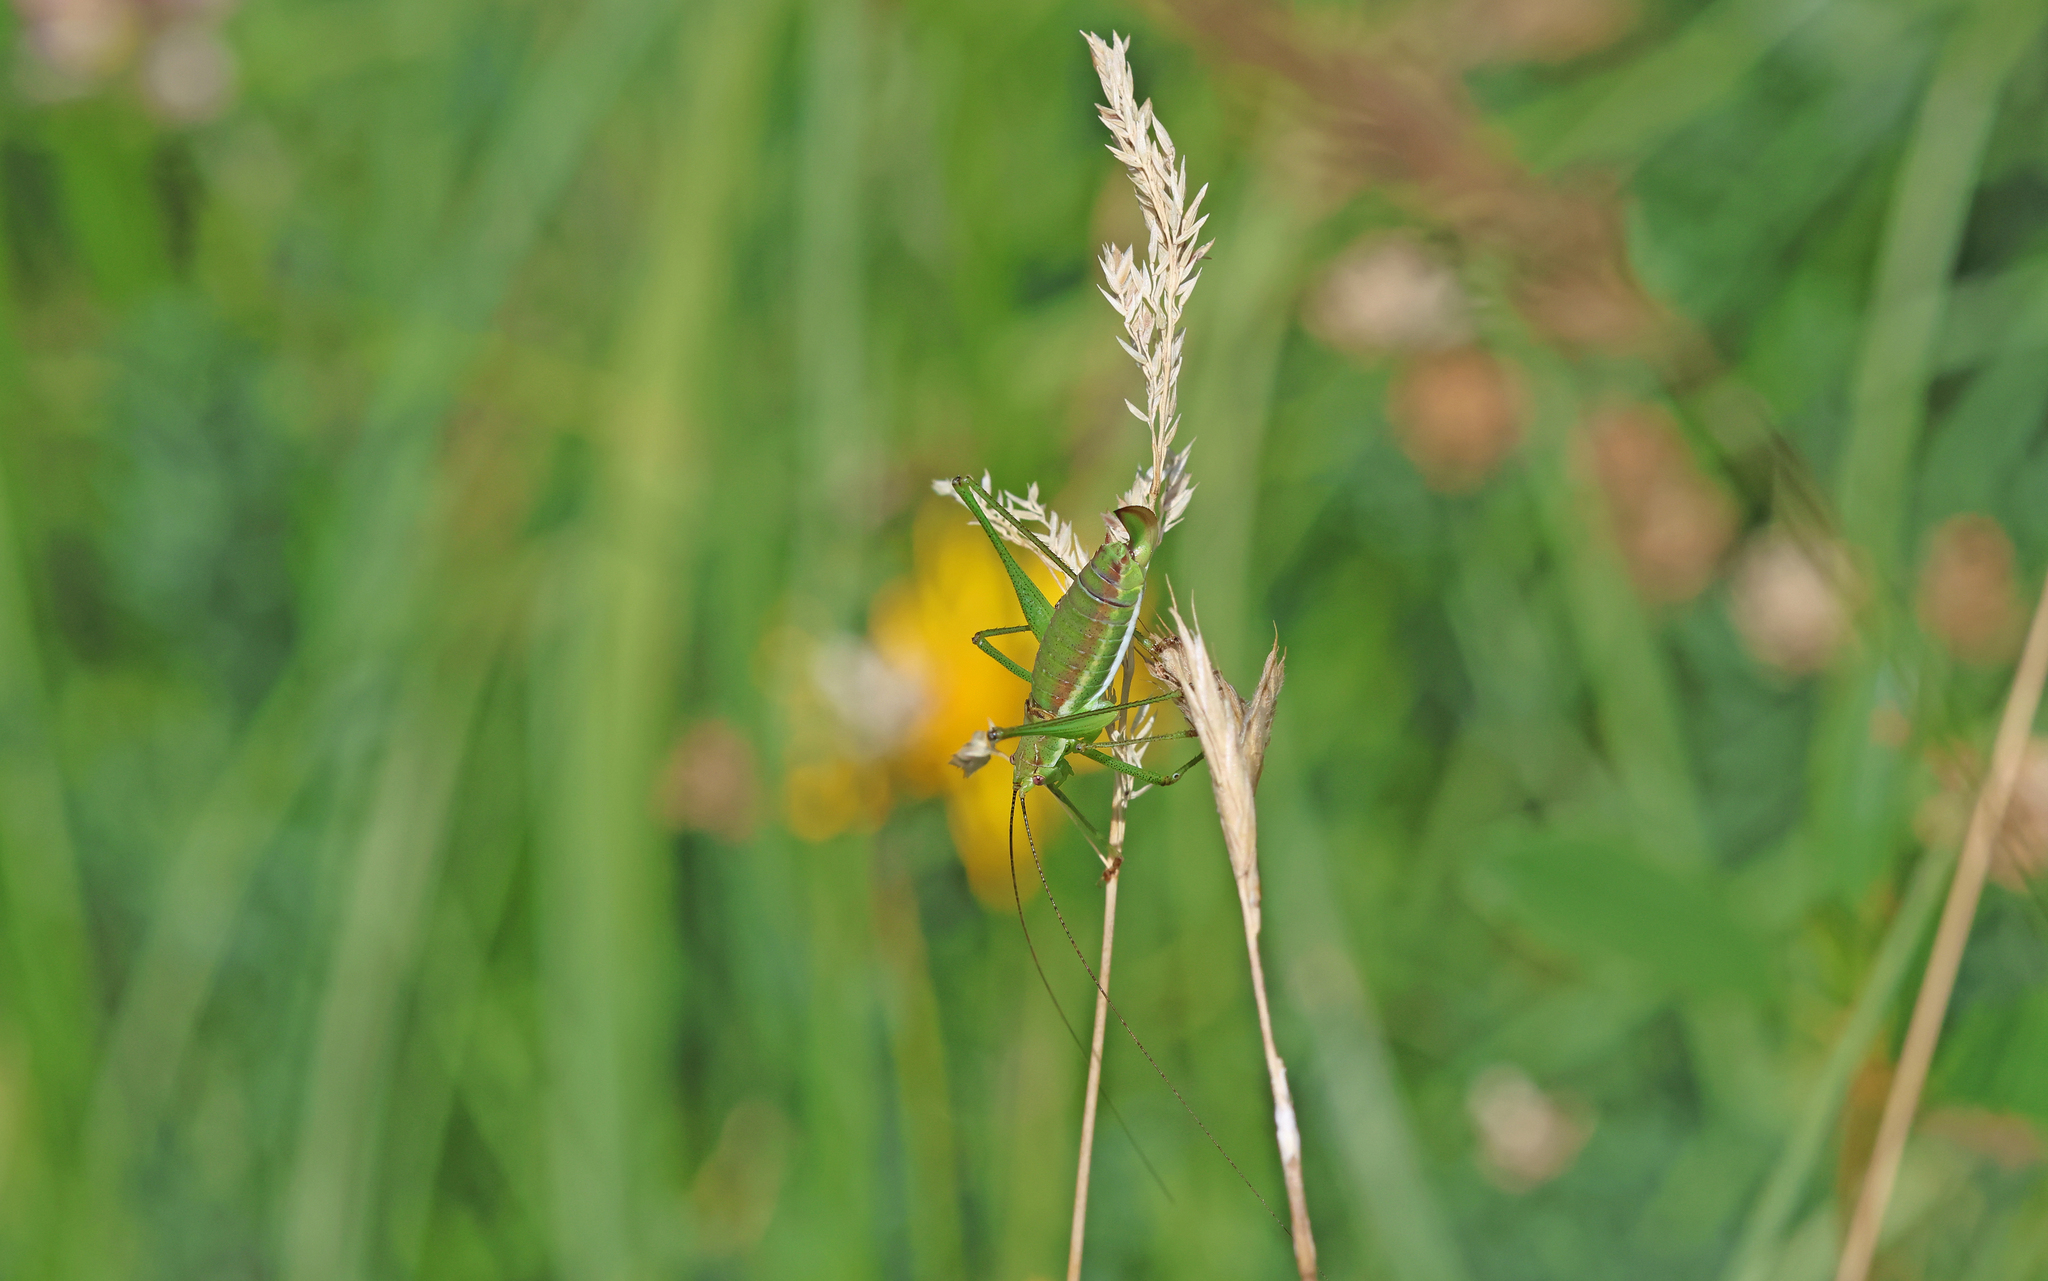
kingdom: Animalia
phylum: Arthropoda
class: Insecta
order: Orthoptera
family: Tettigoniidae
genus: Leptophyes
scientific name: Leptophyes albovittata
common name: Striped bush-cricket
